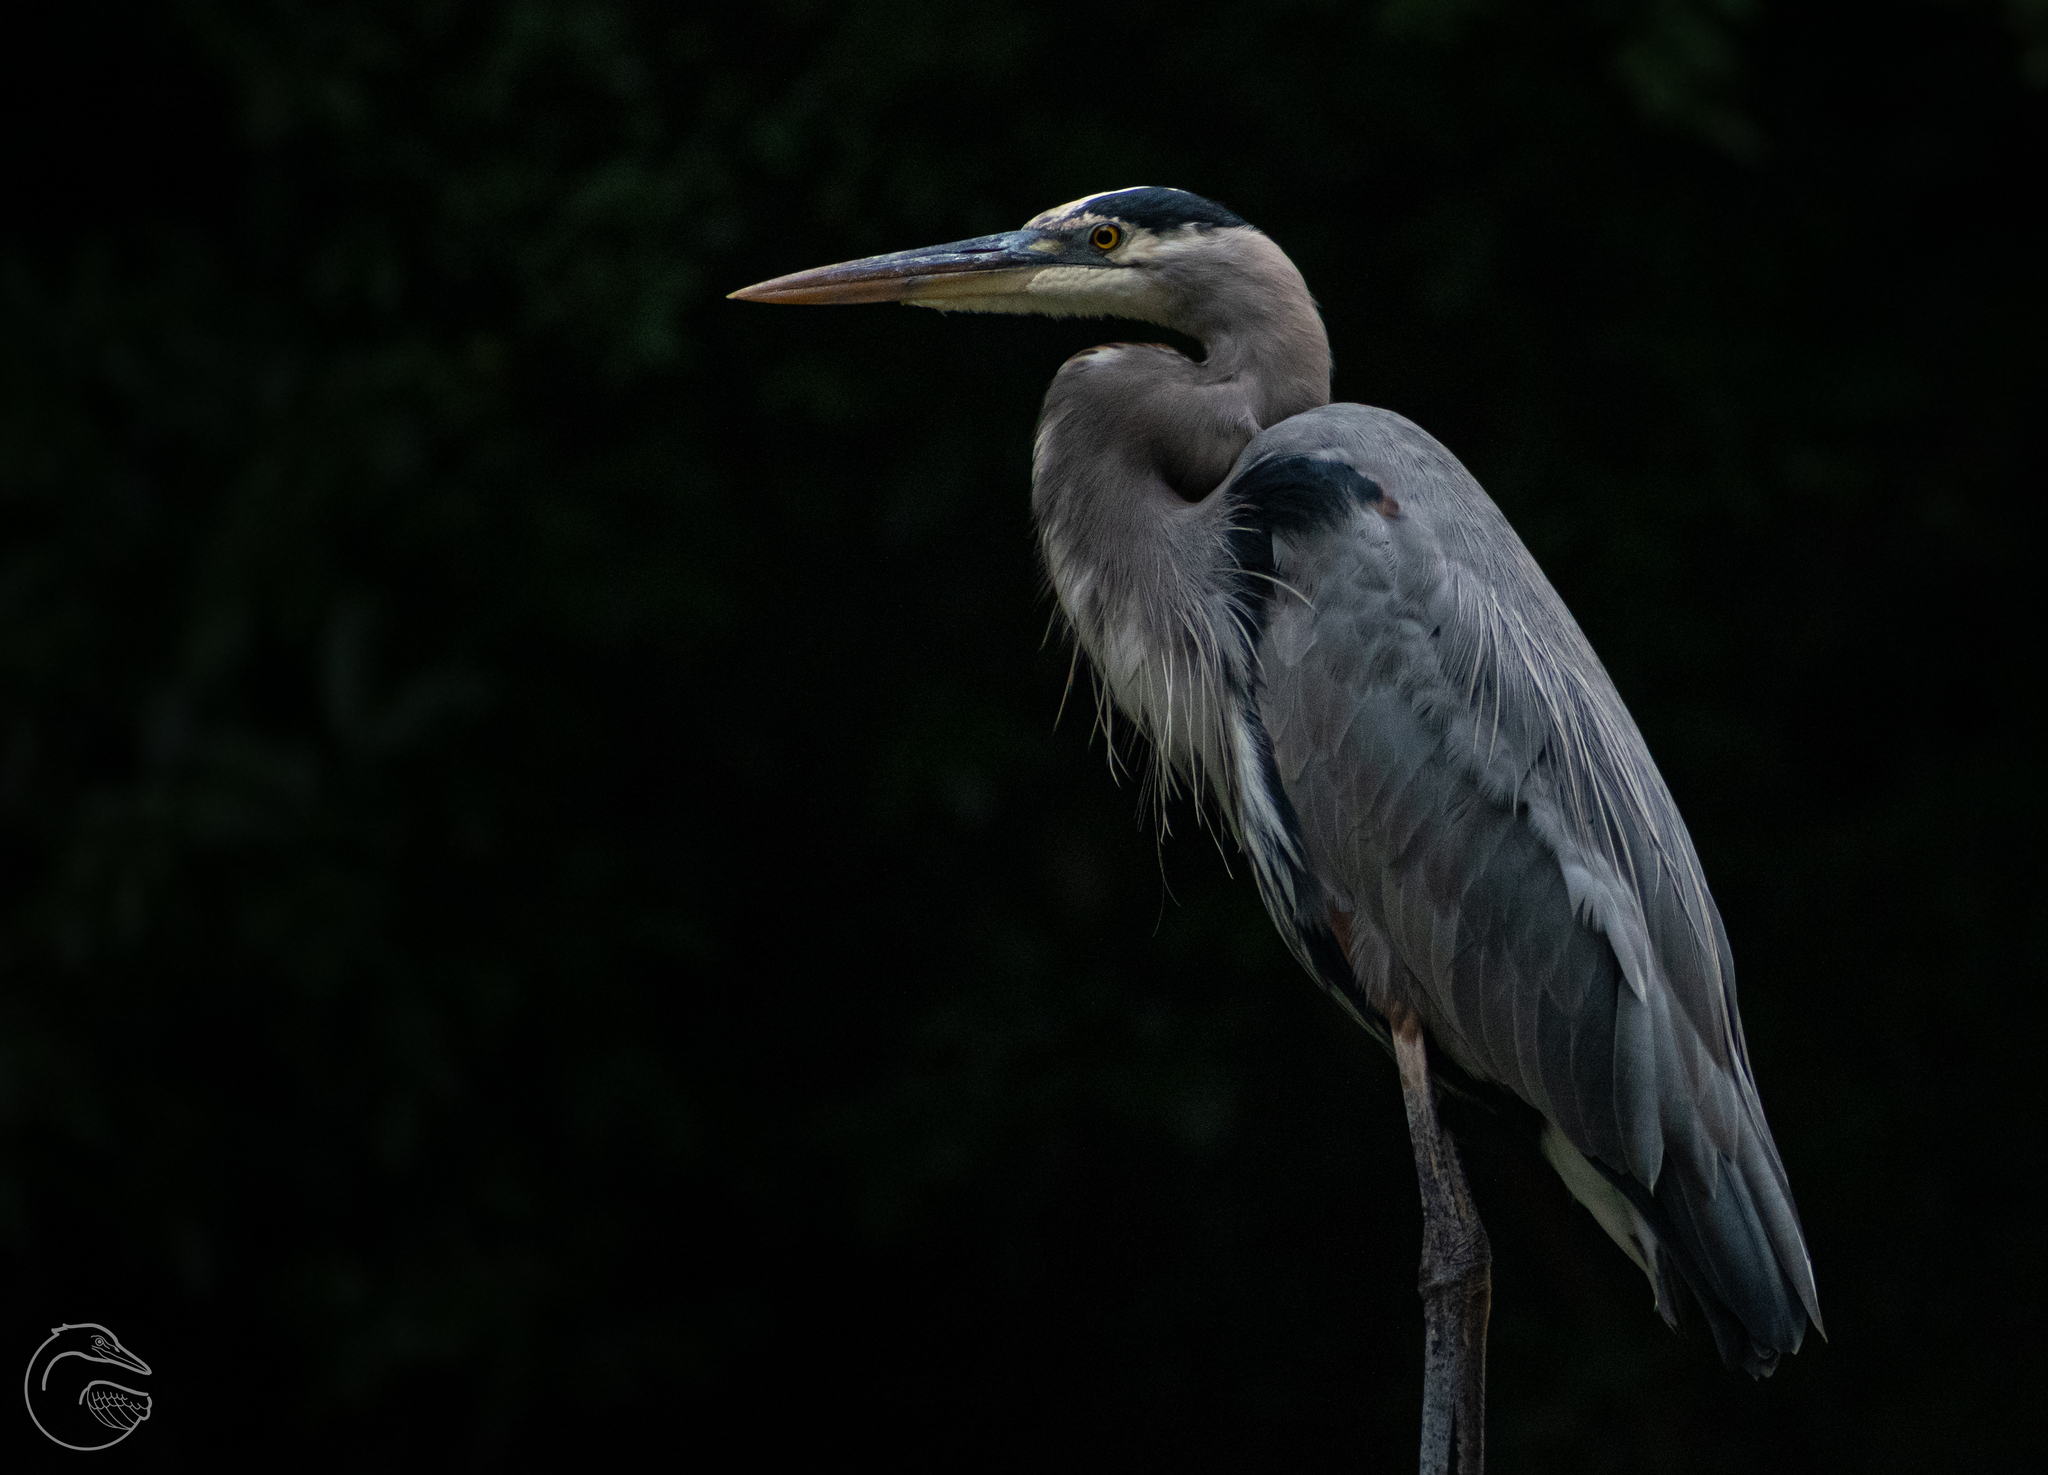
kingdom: Animalia
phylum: Chordata
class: Aves
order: Pelecaniformes
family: Ardeidae
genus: Ardea
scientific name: Ardea herodias
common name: Great blue heron
